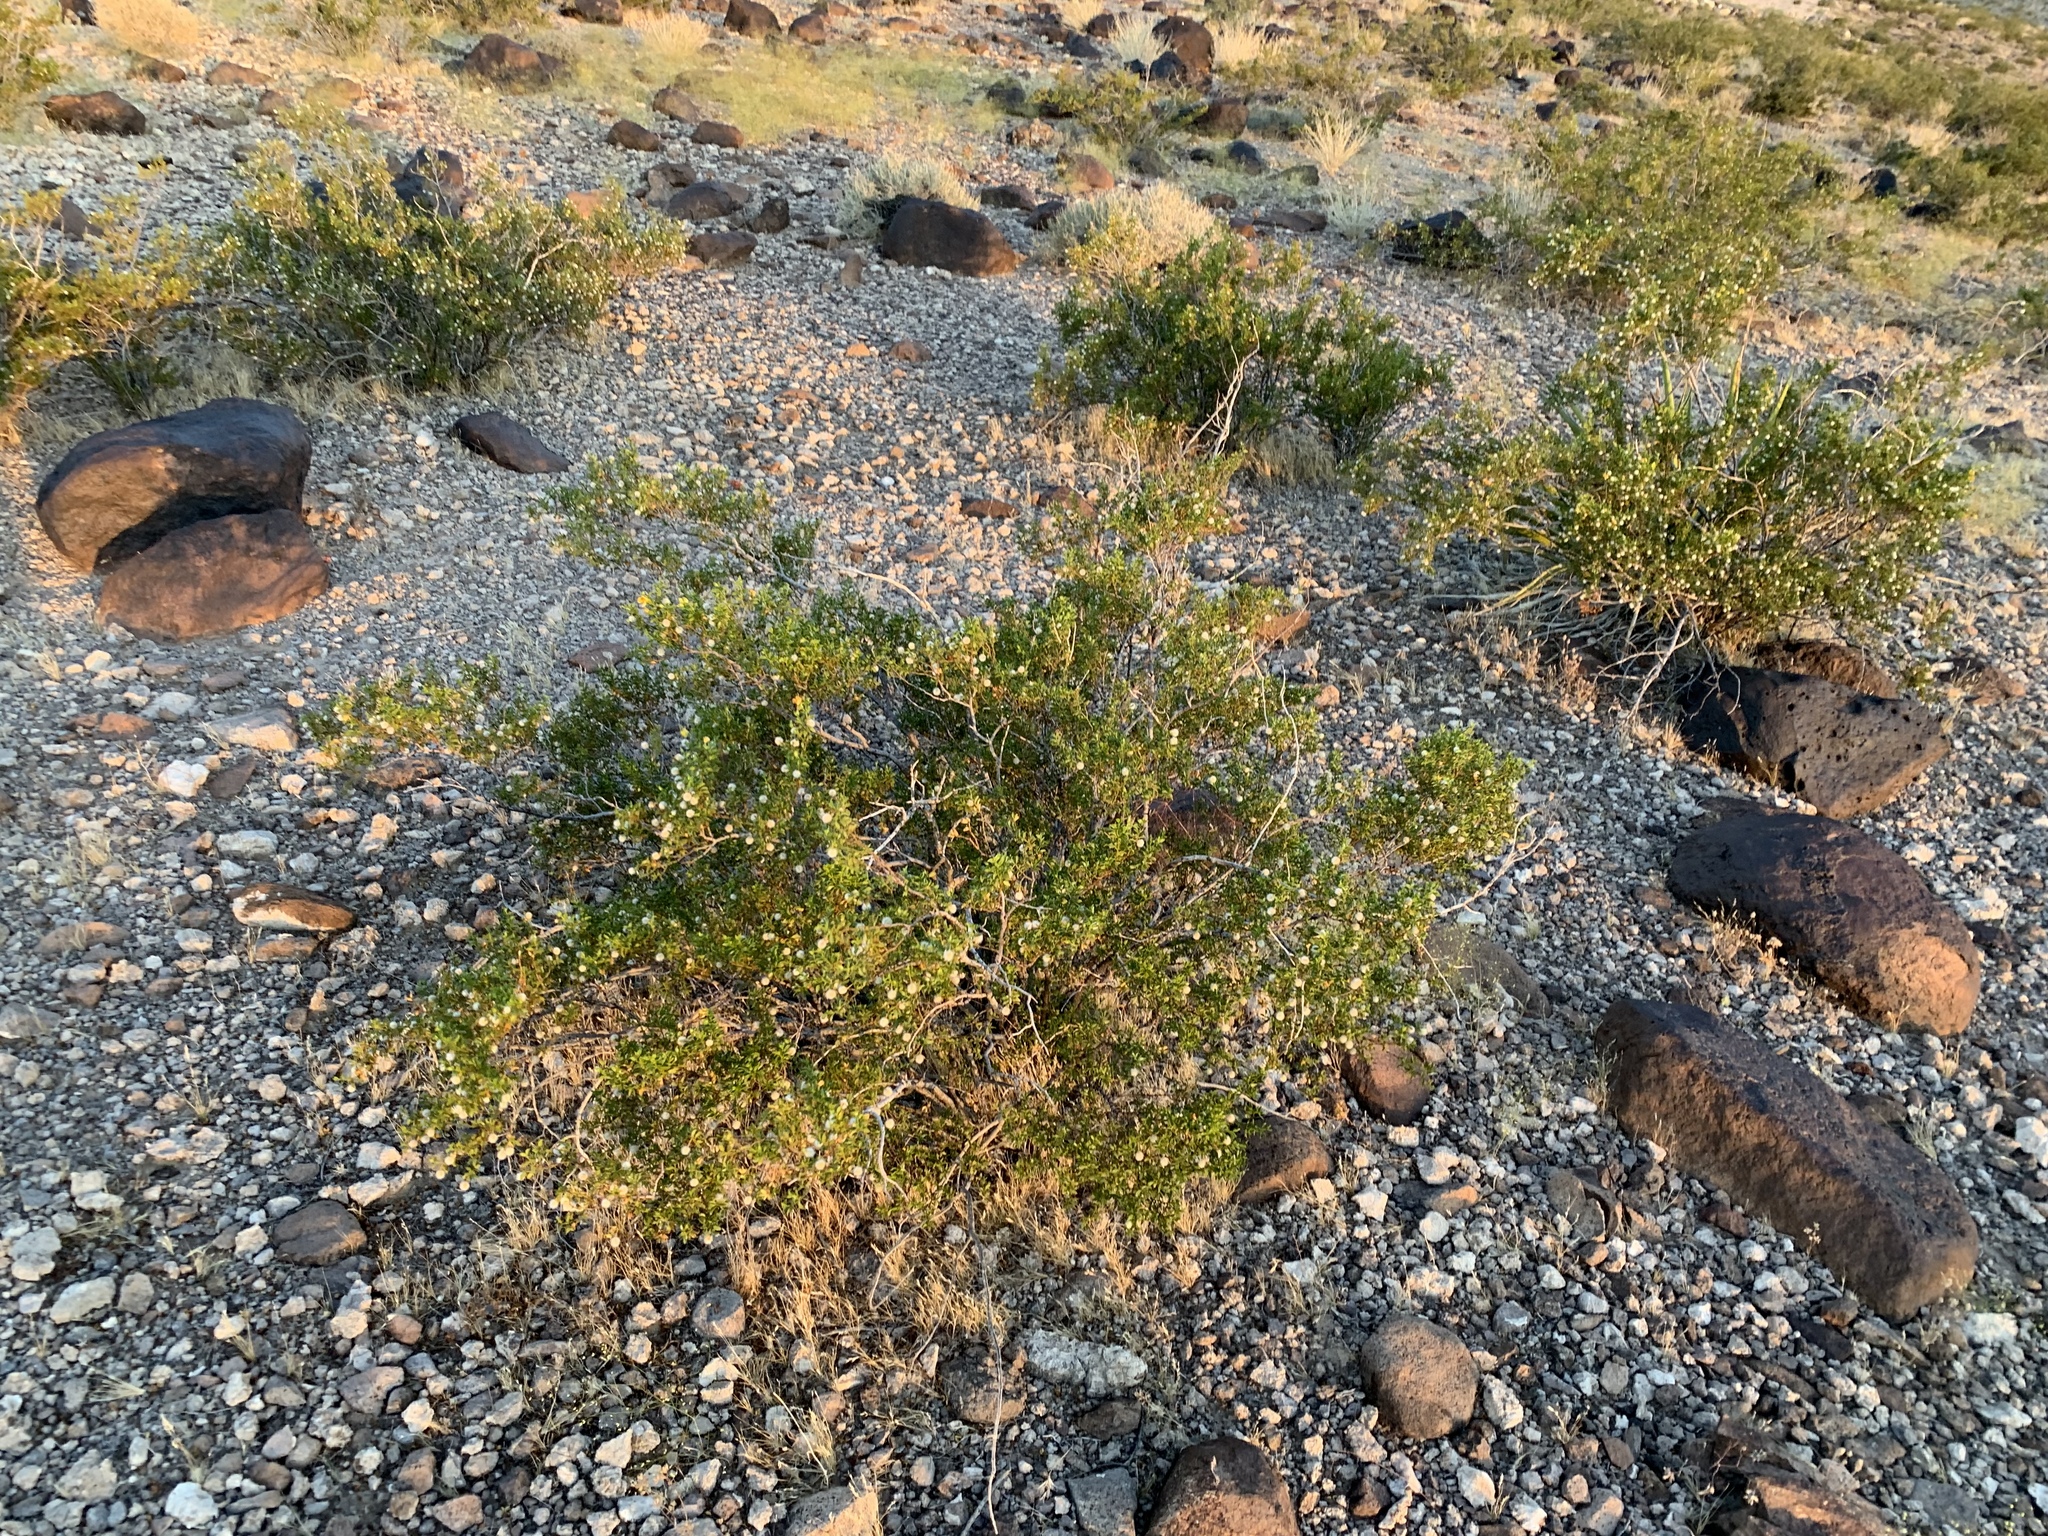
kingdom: Plantae
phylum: Tracheophyta
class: Magnoliopsida
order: Zygophyllales
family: Zygophyllaceae
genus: Larrea
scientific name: Larrea tridentata
